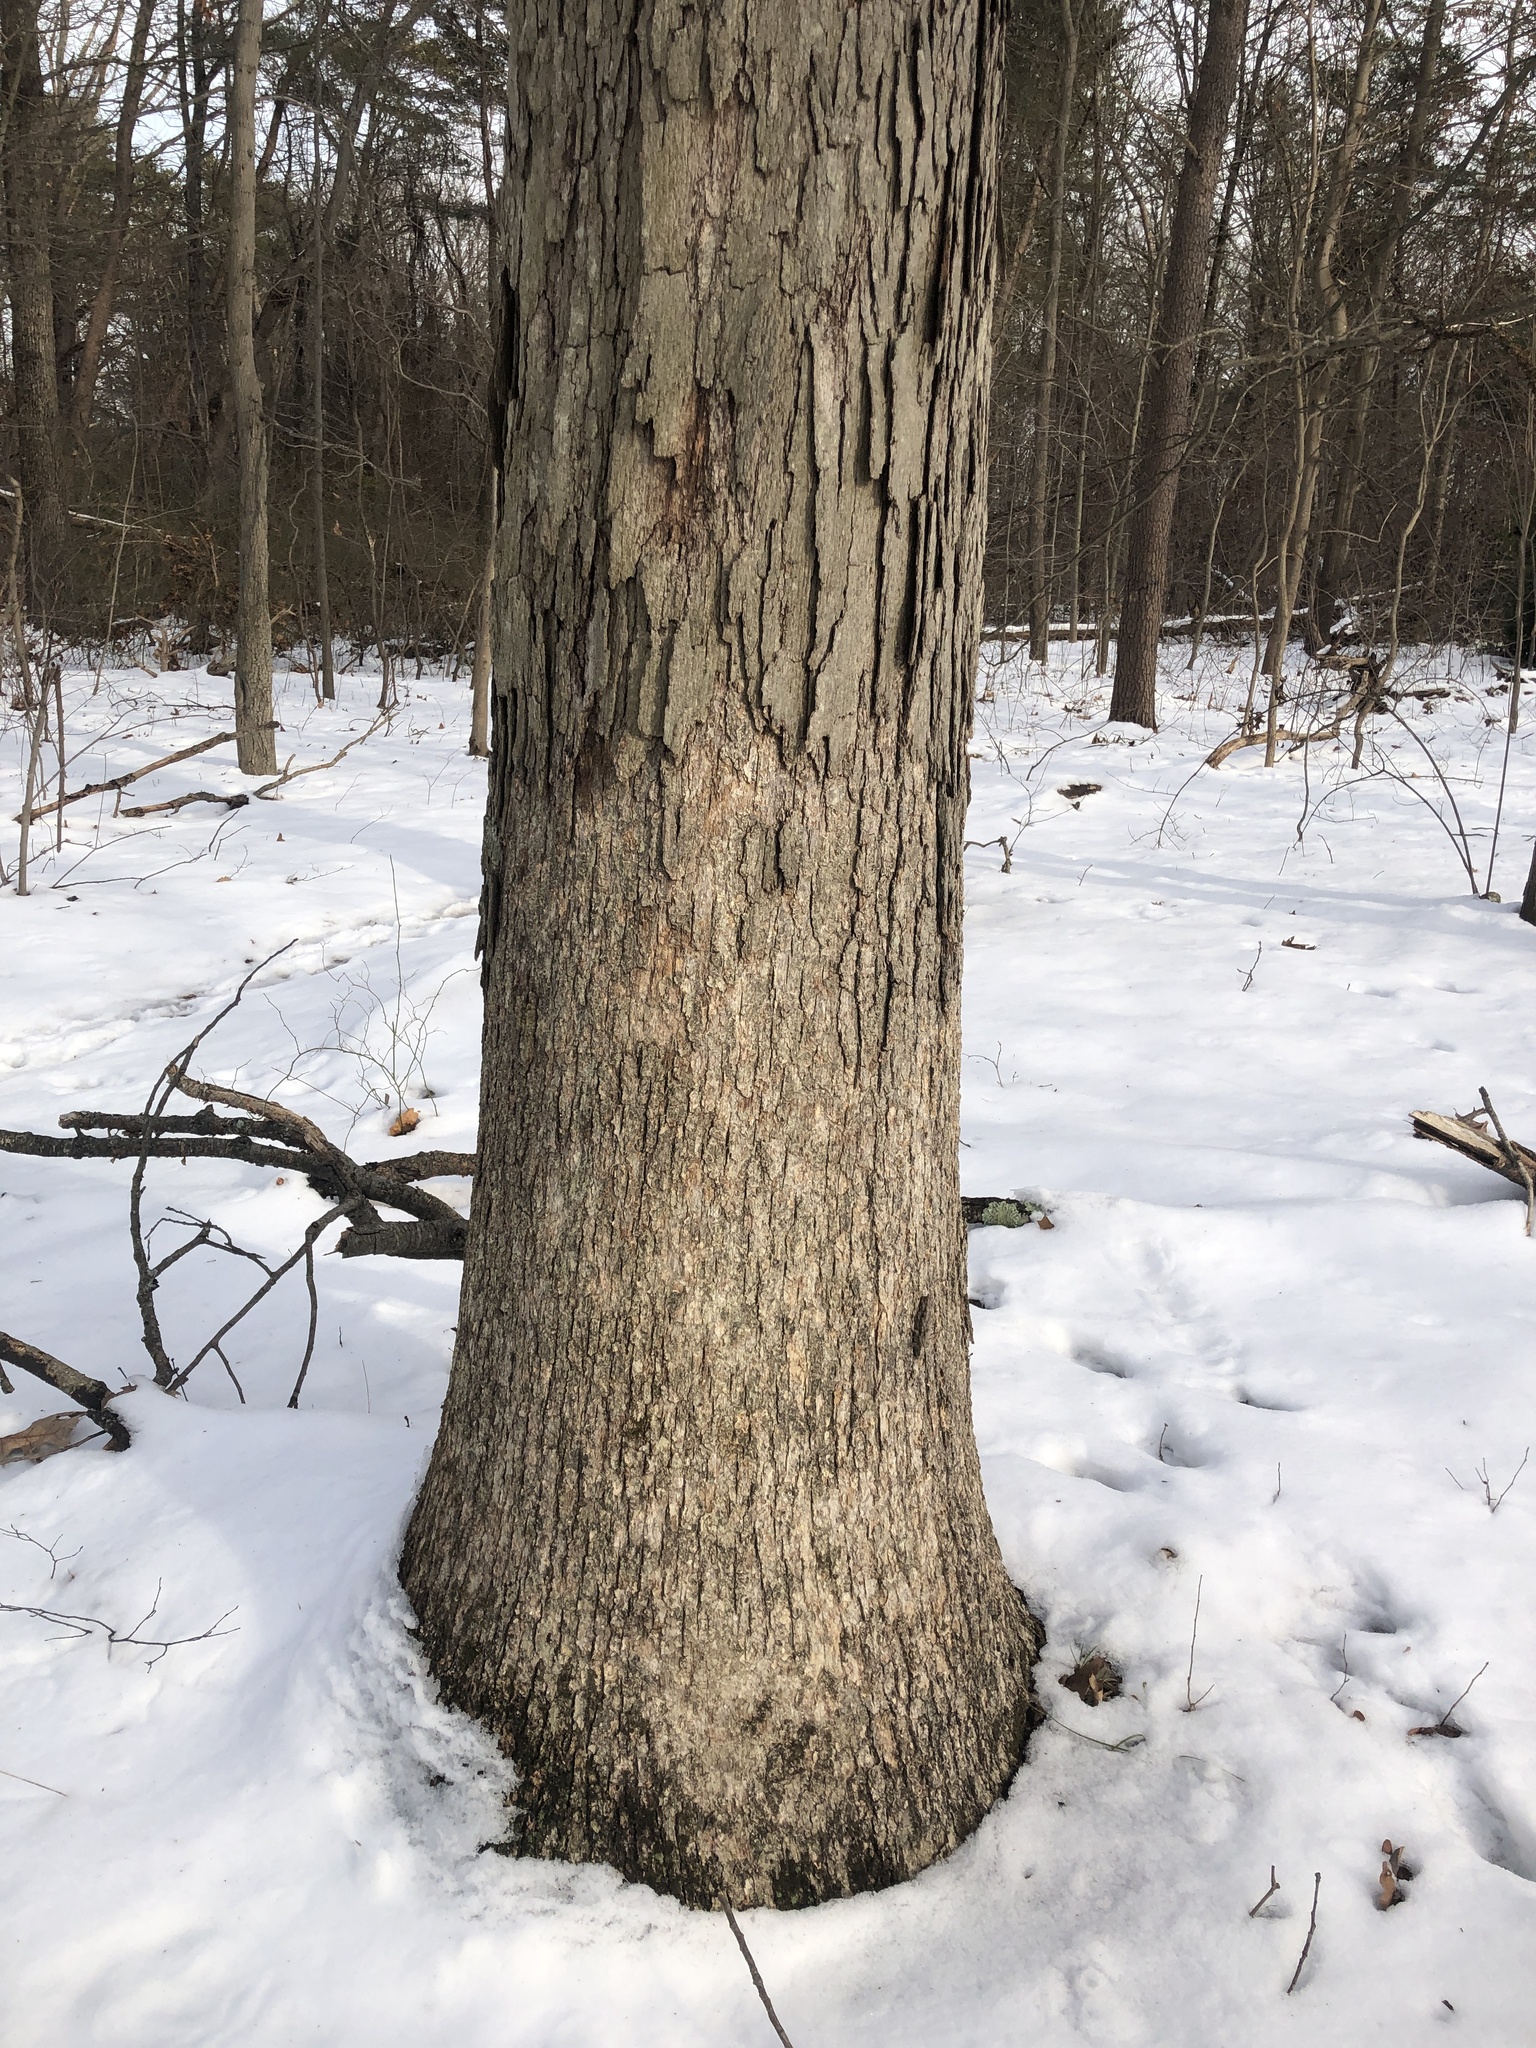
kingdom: Fungi
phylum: Basidiomycota
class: Agaricomycetes
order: Russulales
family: Stereaceae
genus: Acanthophysium
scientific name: Acanthophysium oakesii
